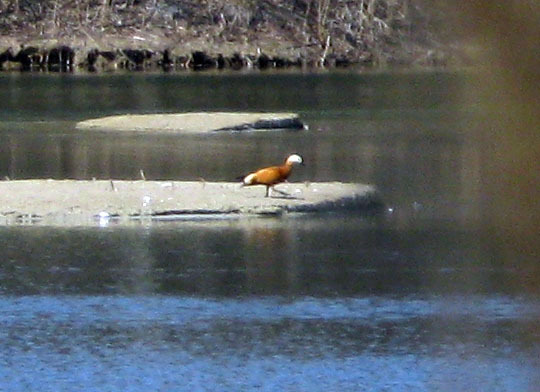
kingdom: Animalia
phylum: Chordata
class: Aves
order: Anseriformes
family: Anatidae
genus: Tadorna
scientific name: Tadorna ferruginea
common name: Ruddy shelduck
